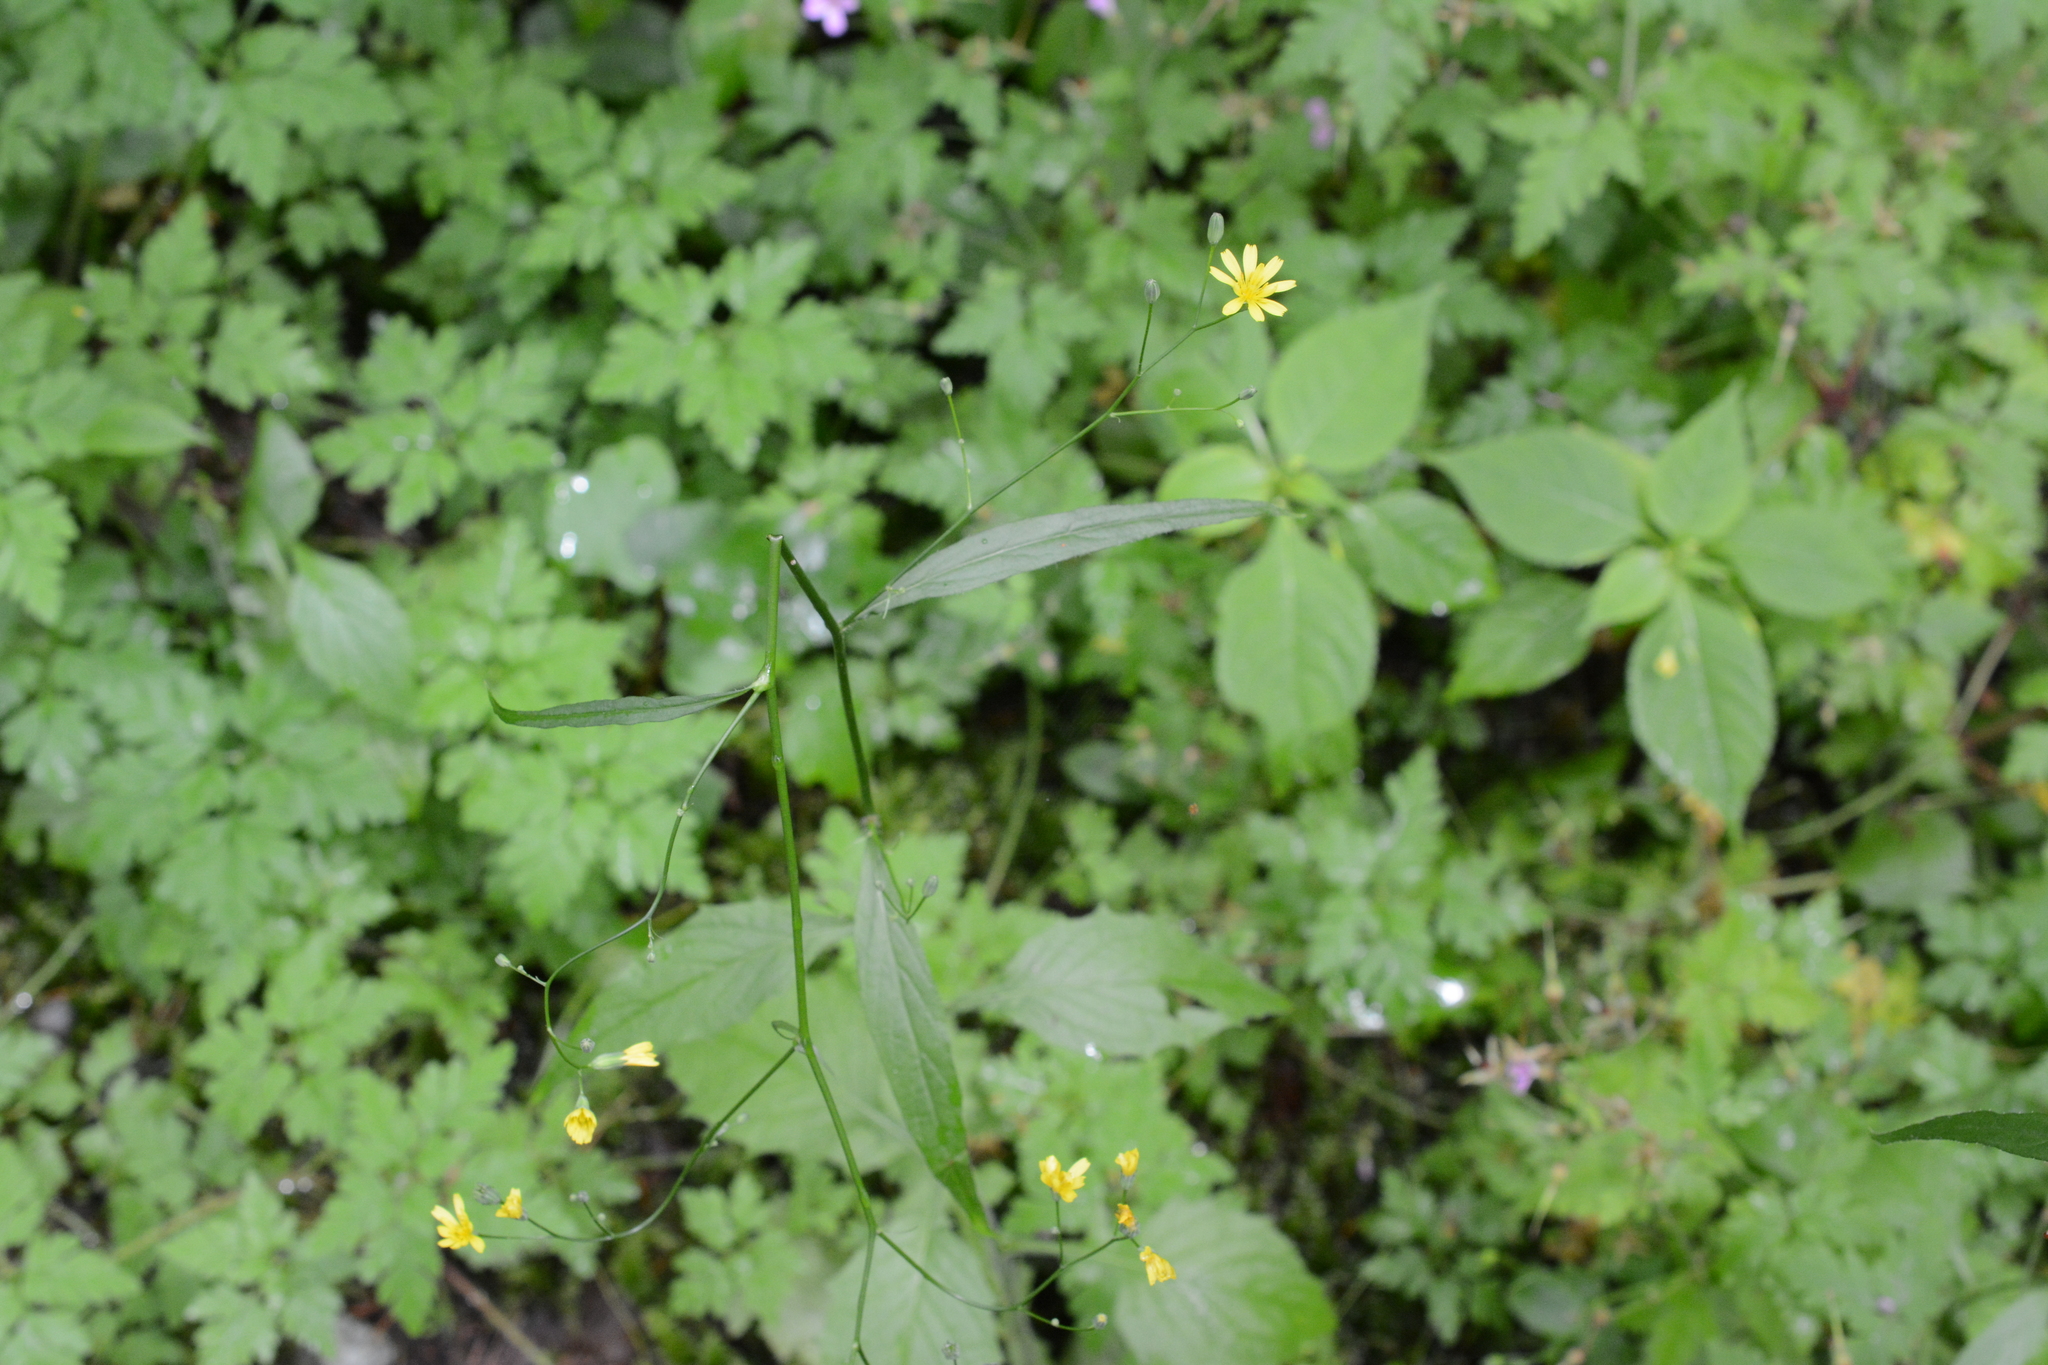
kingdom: Plantae
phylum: Tracheophyta
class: Magnoliopsida
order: Asterales
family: Asteraceae
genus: Lapsana
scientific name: Lapsana communis
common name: Nipplewort
